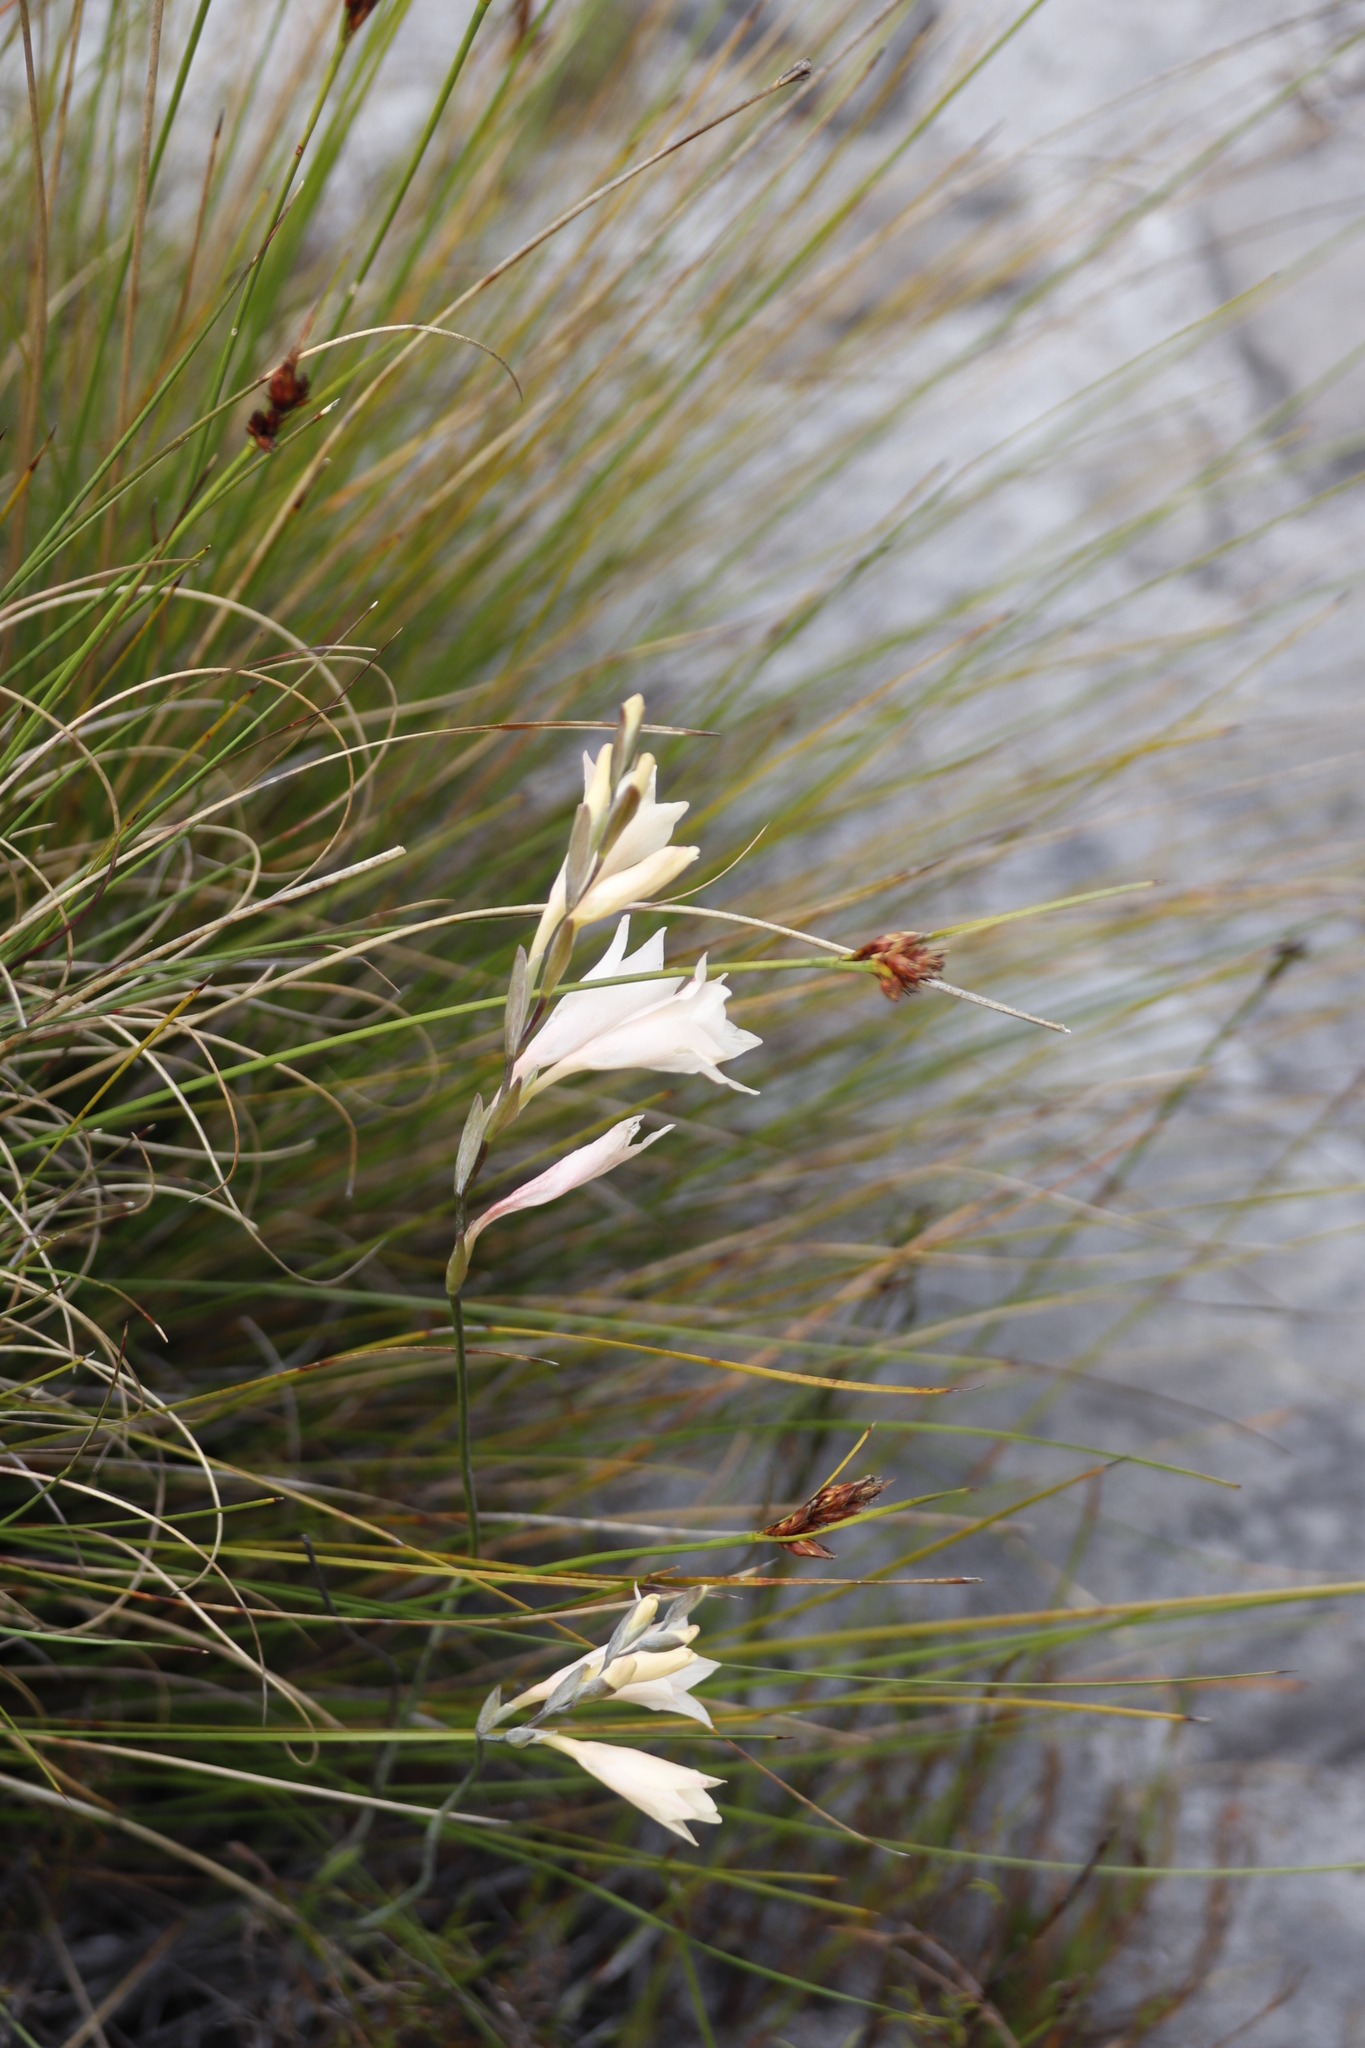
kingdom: Plantae
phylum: Tracheophyta
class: Liliopsida
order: Asparagales
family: Iridaceae
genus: Gladiolus
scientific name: Gladiolus monticola
